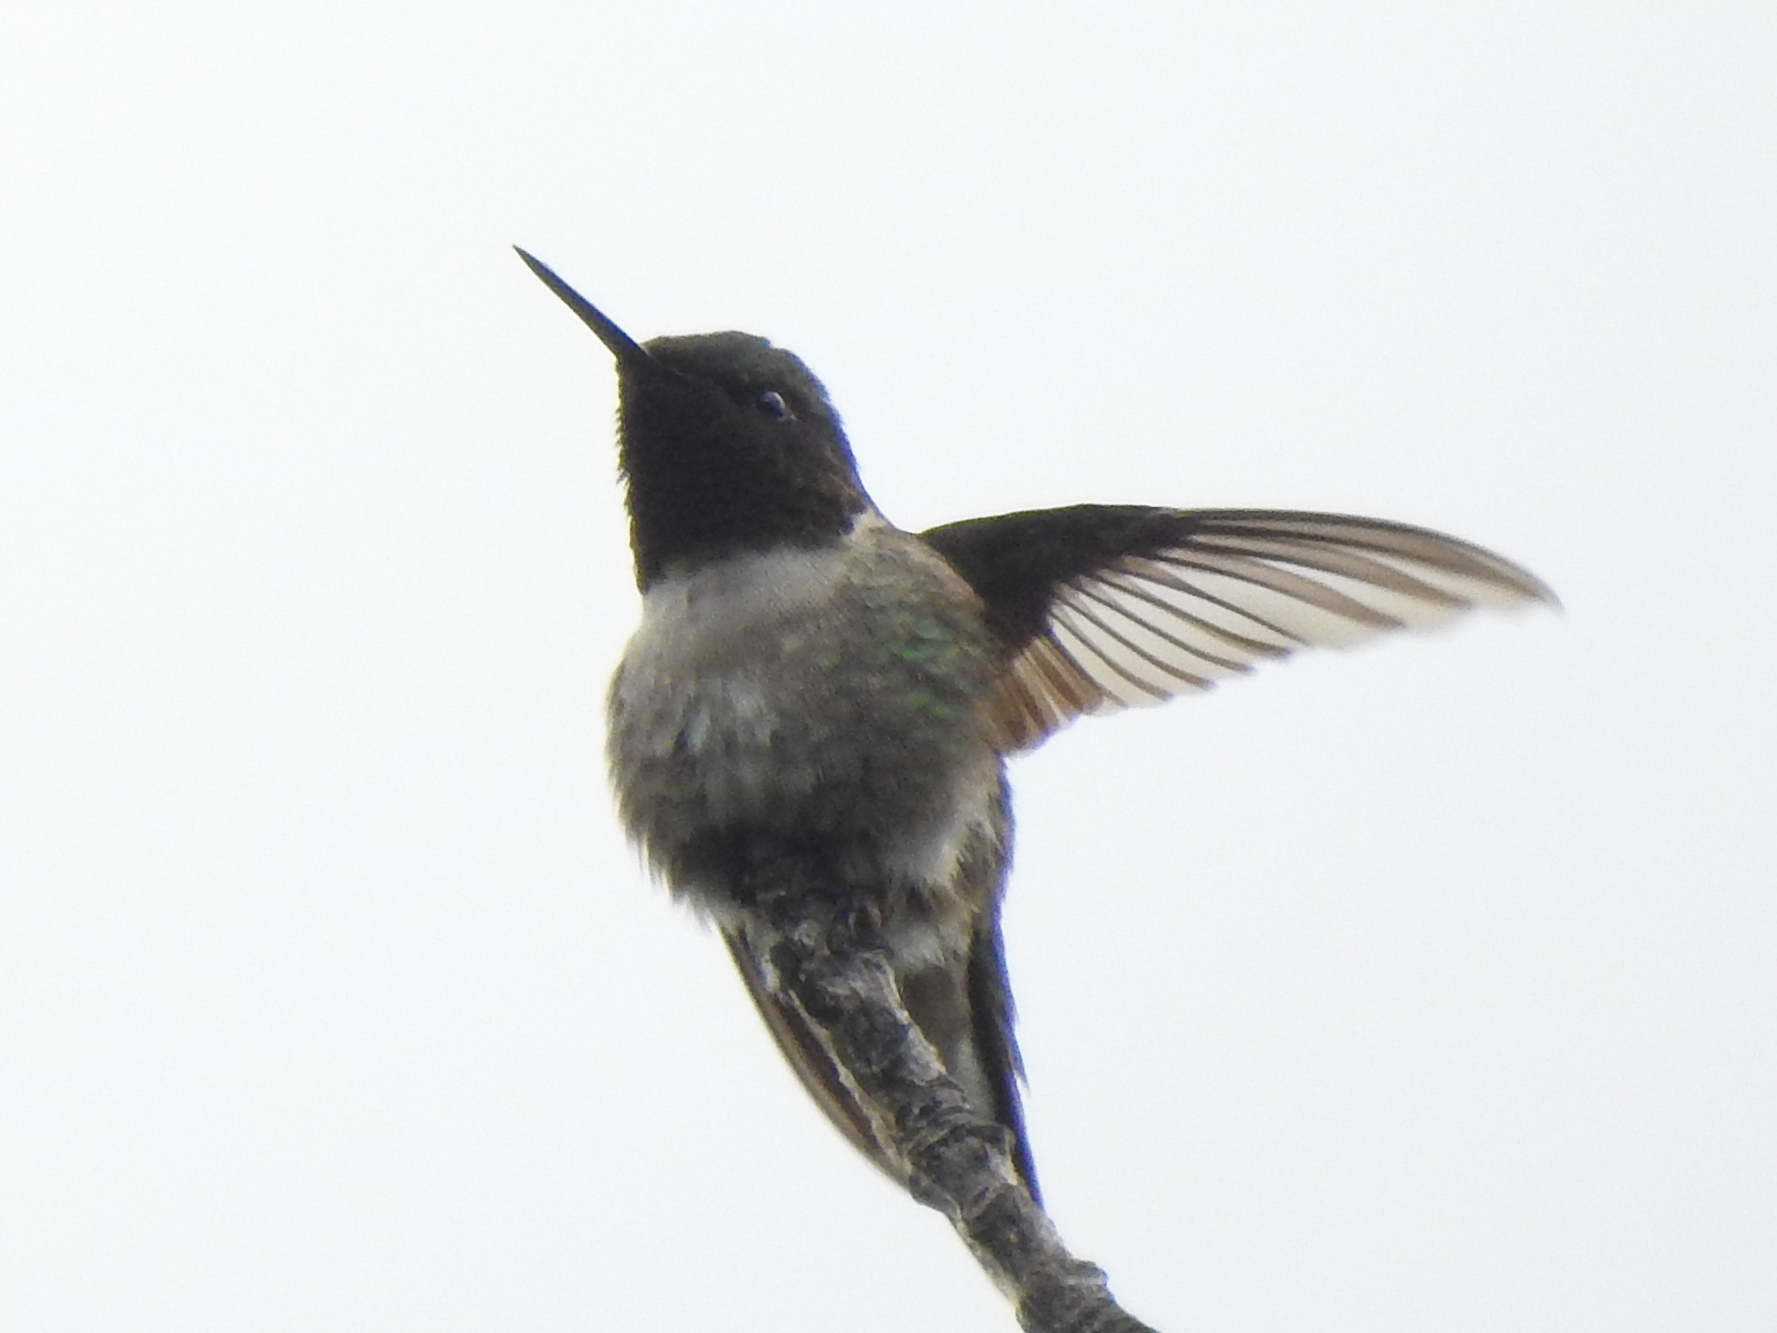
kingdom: Animalia
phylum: Chordata
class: Aves
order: Apodiformes
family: Trochilidae
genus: Archilochus
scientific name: Archilochus colubris
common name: Ruby-throated hummingbird
